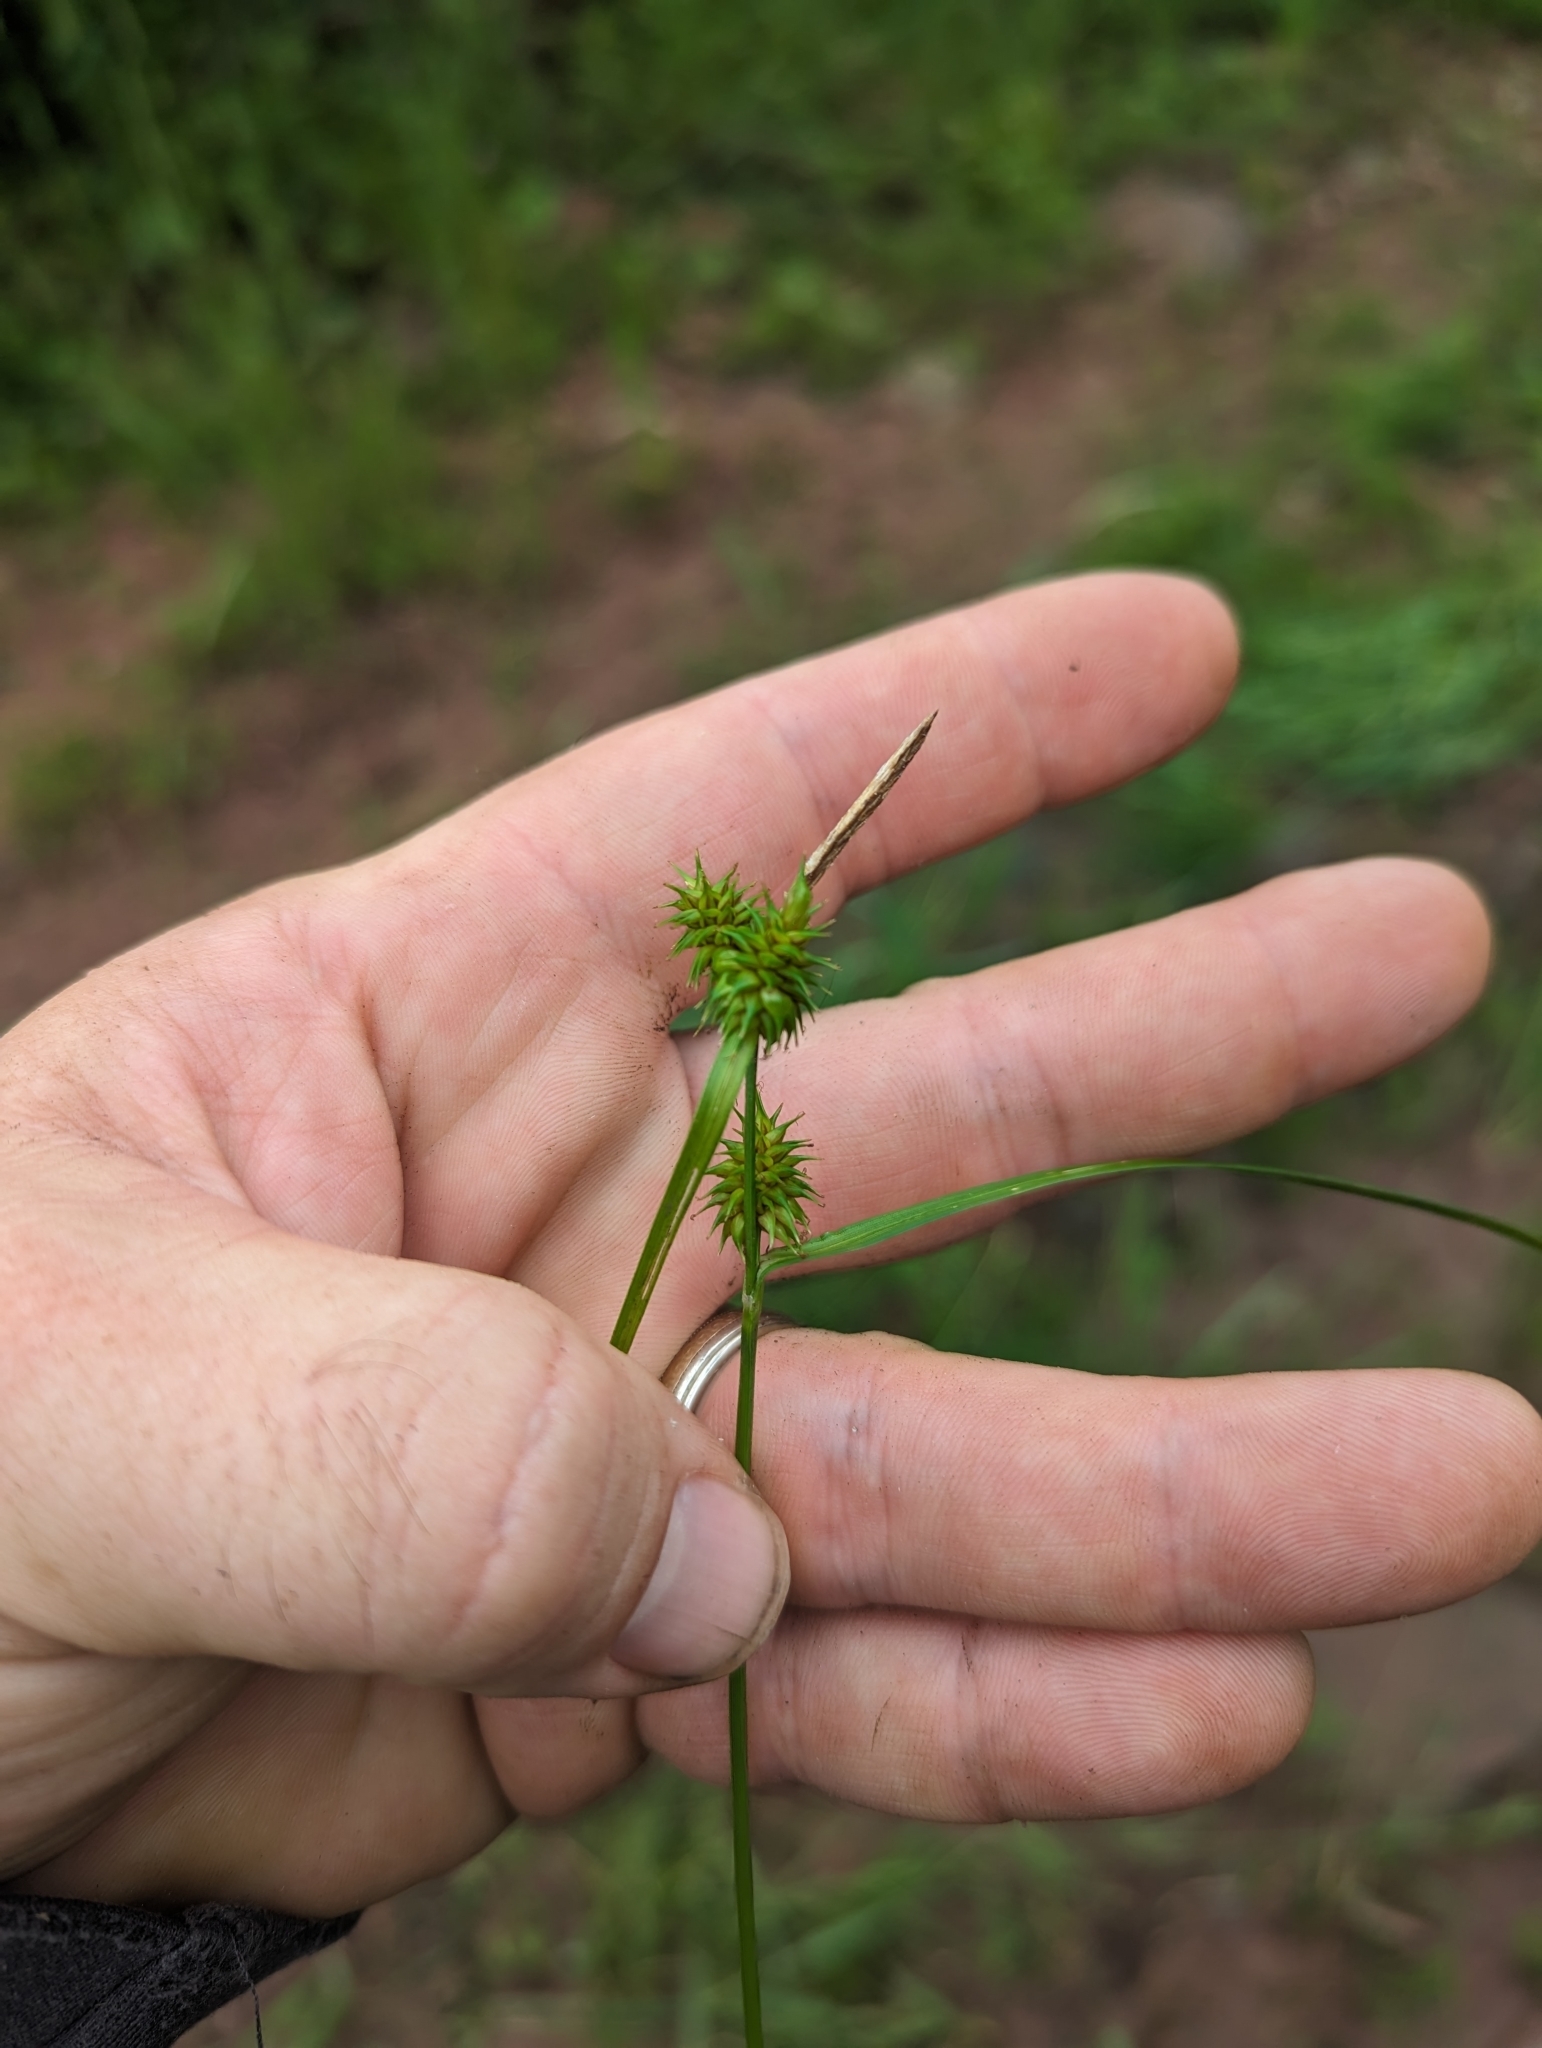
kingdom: Plantae
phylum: Tracheophyta
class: Liliopsida
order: Poales
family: Cyperaceae
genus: Carex
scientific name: Carex flava
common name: Large yellow-sedge
